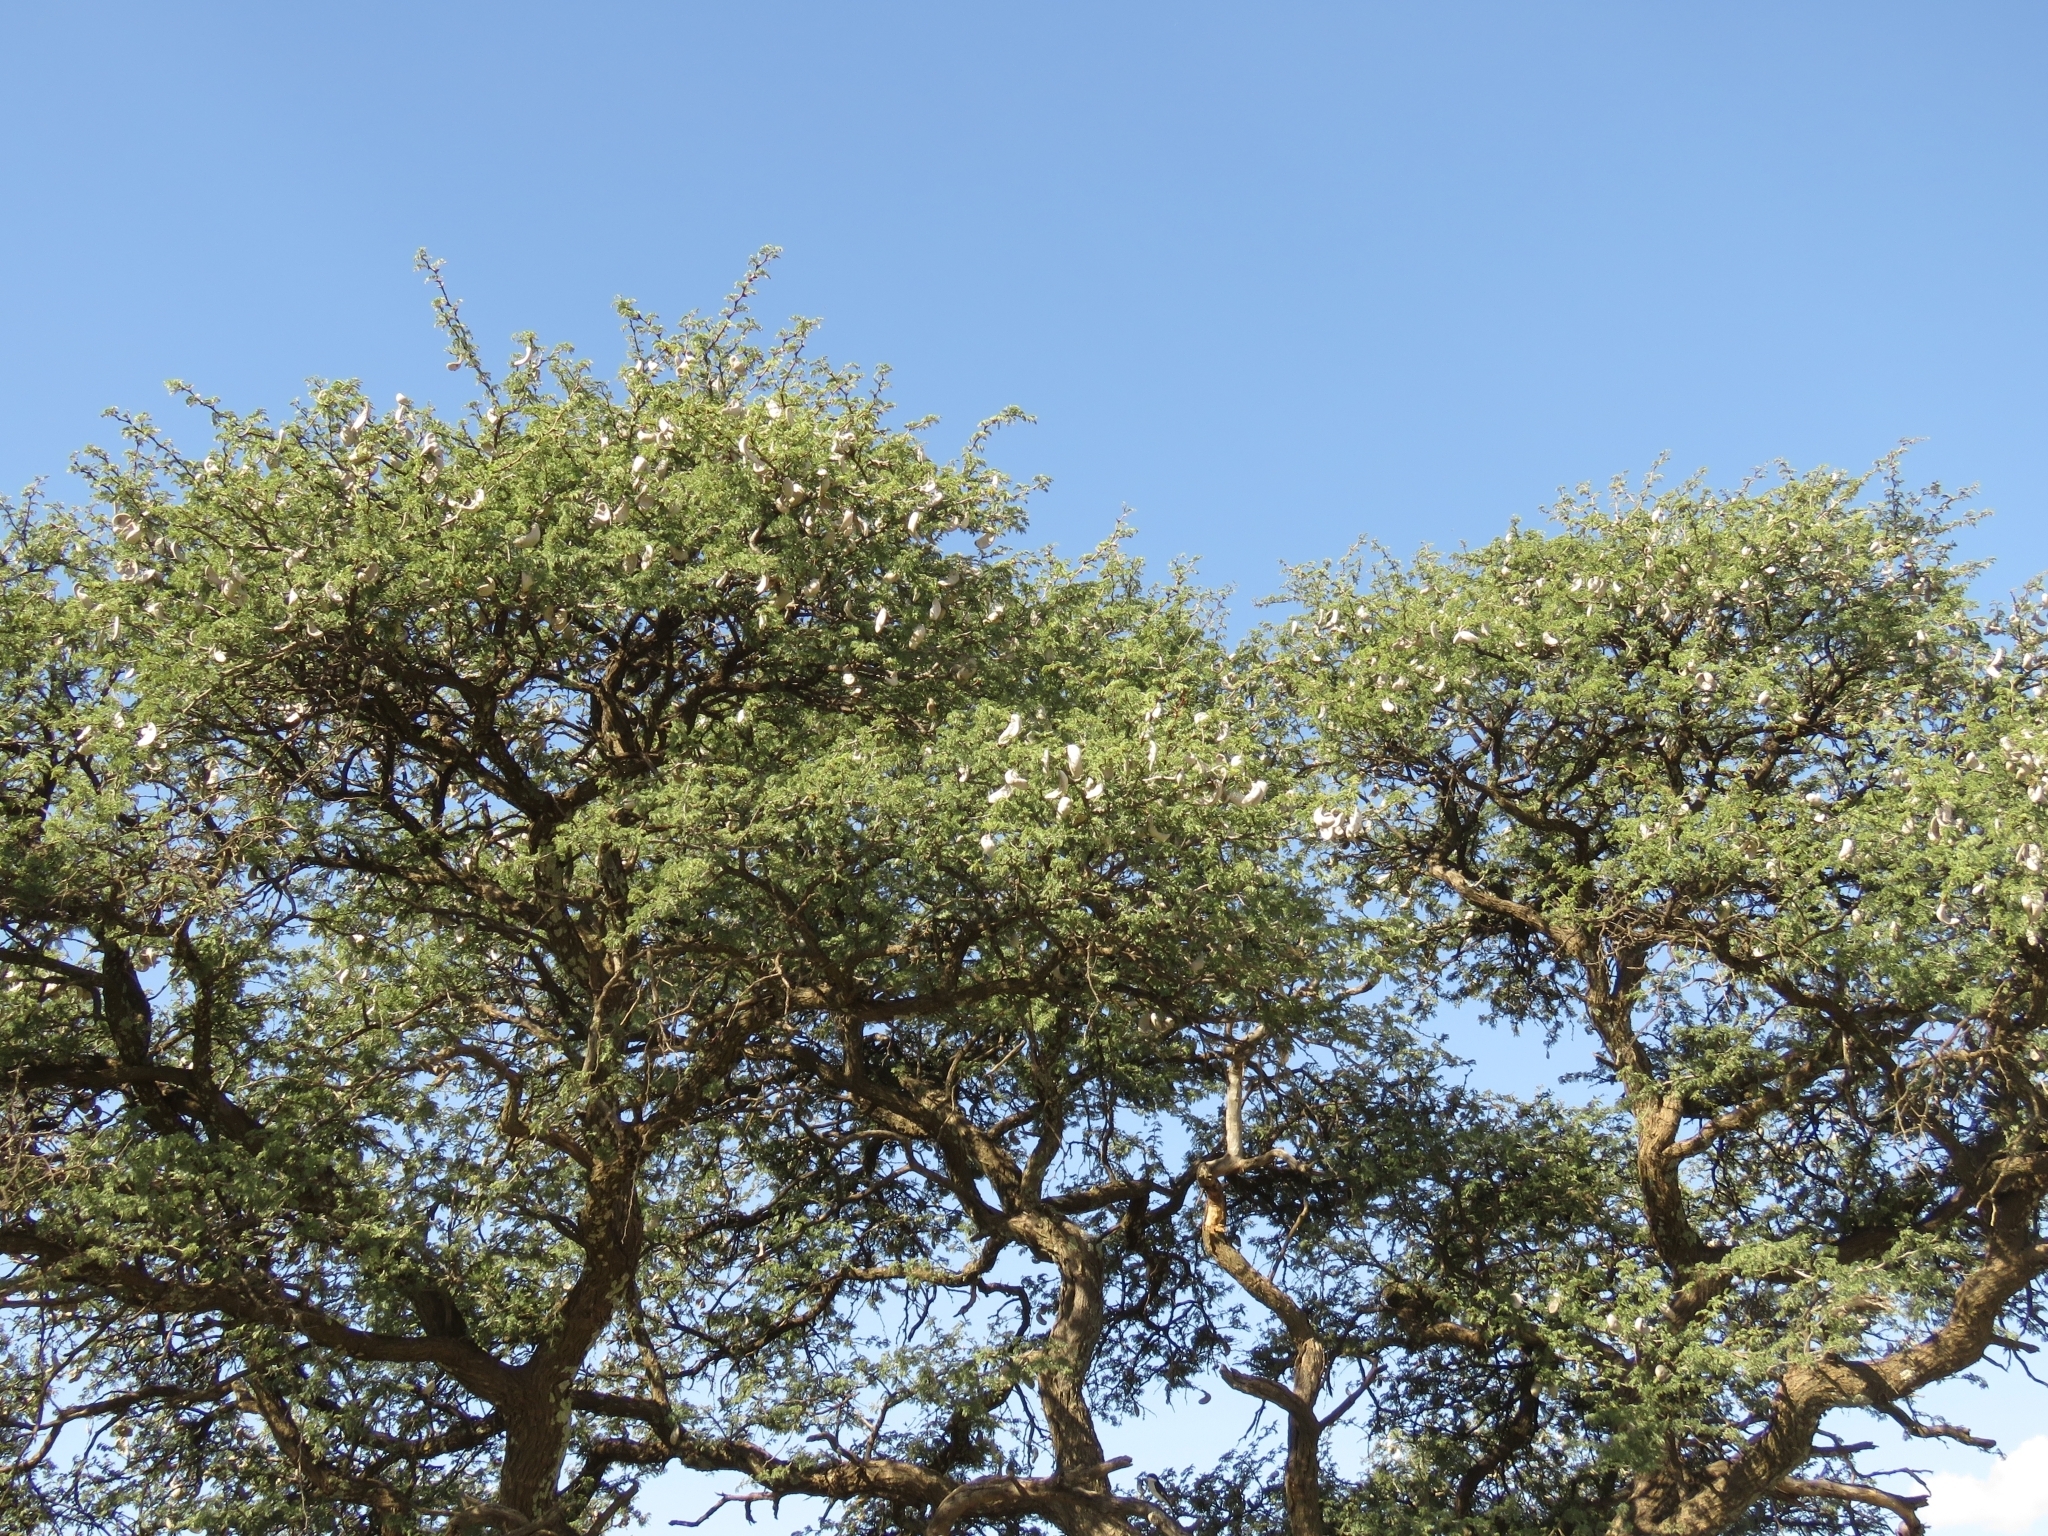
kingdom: Plantae
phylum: Tracheophyta
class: Magnoliopsida
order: Fabales
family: Fabaceae
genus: Vachellia
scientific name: Vachellia erioloba
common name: Camel thorn
